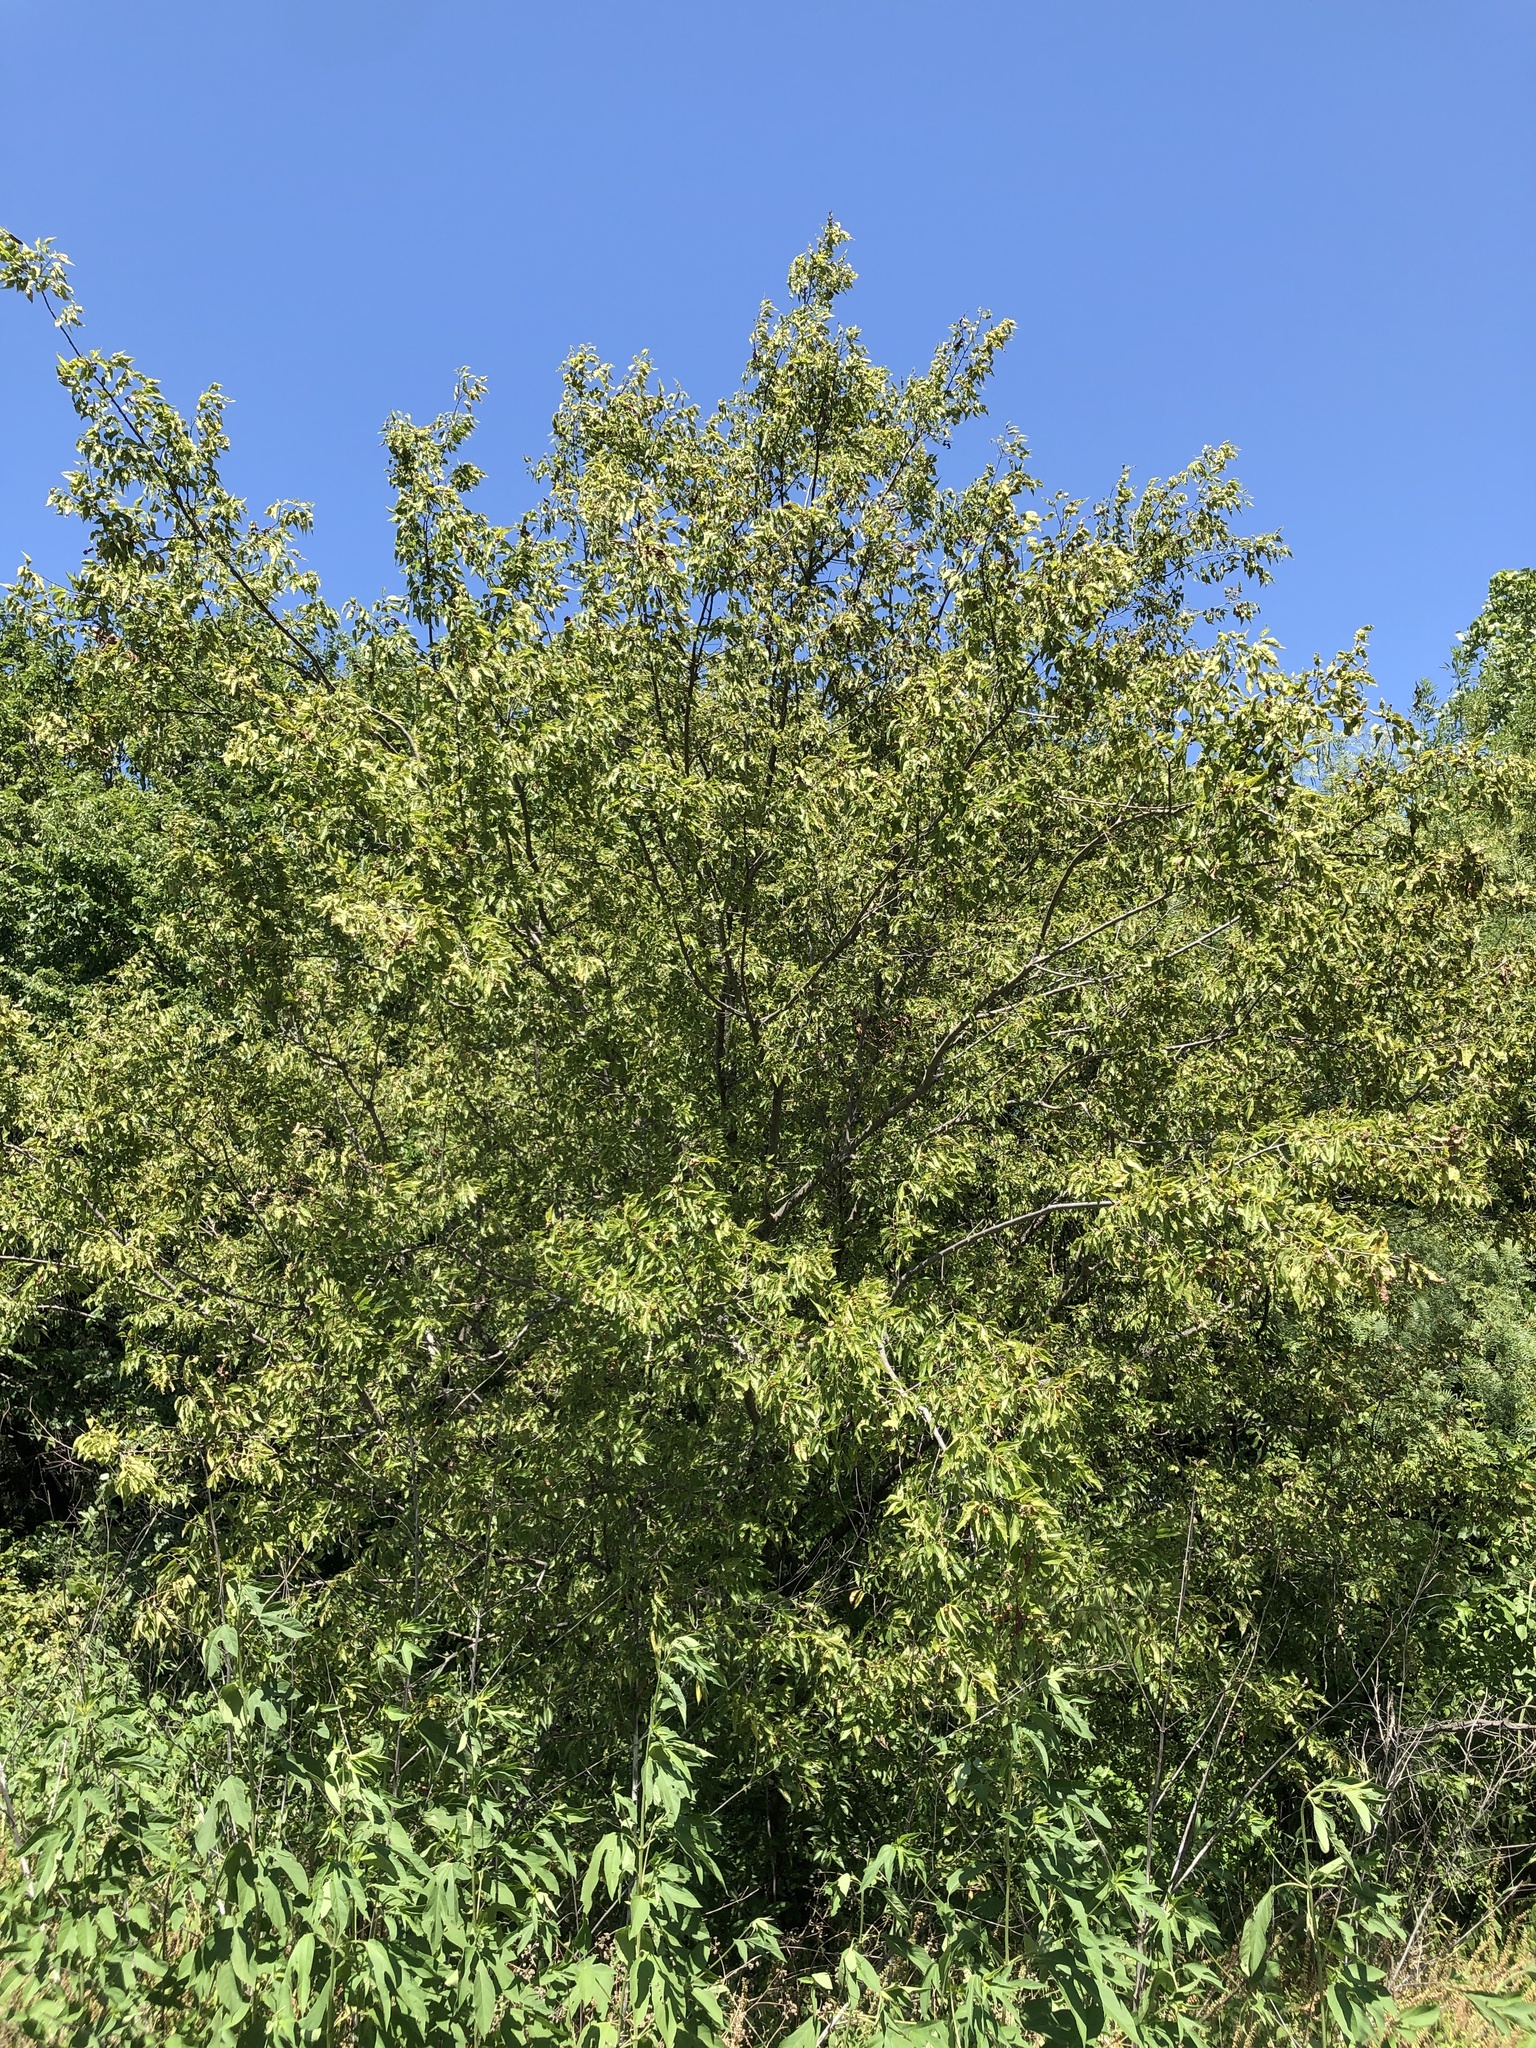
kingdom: Plantae
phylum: Tracheophyta
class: Magnoliopsida
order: Rosales
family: Cannabaceae
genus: Celtis
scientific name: Celtis laevigata
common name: Sugarberry
